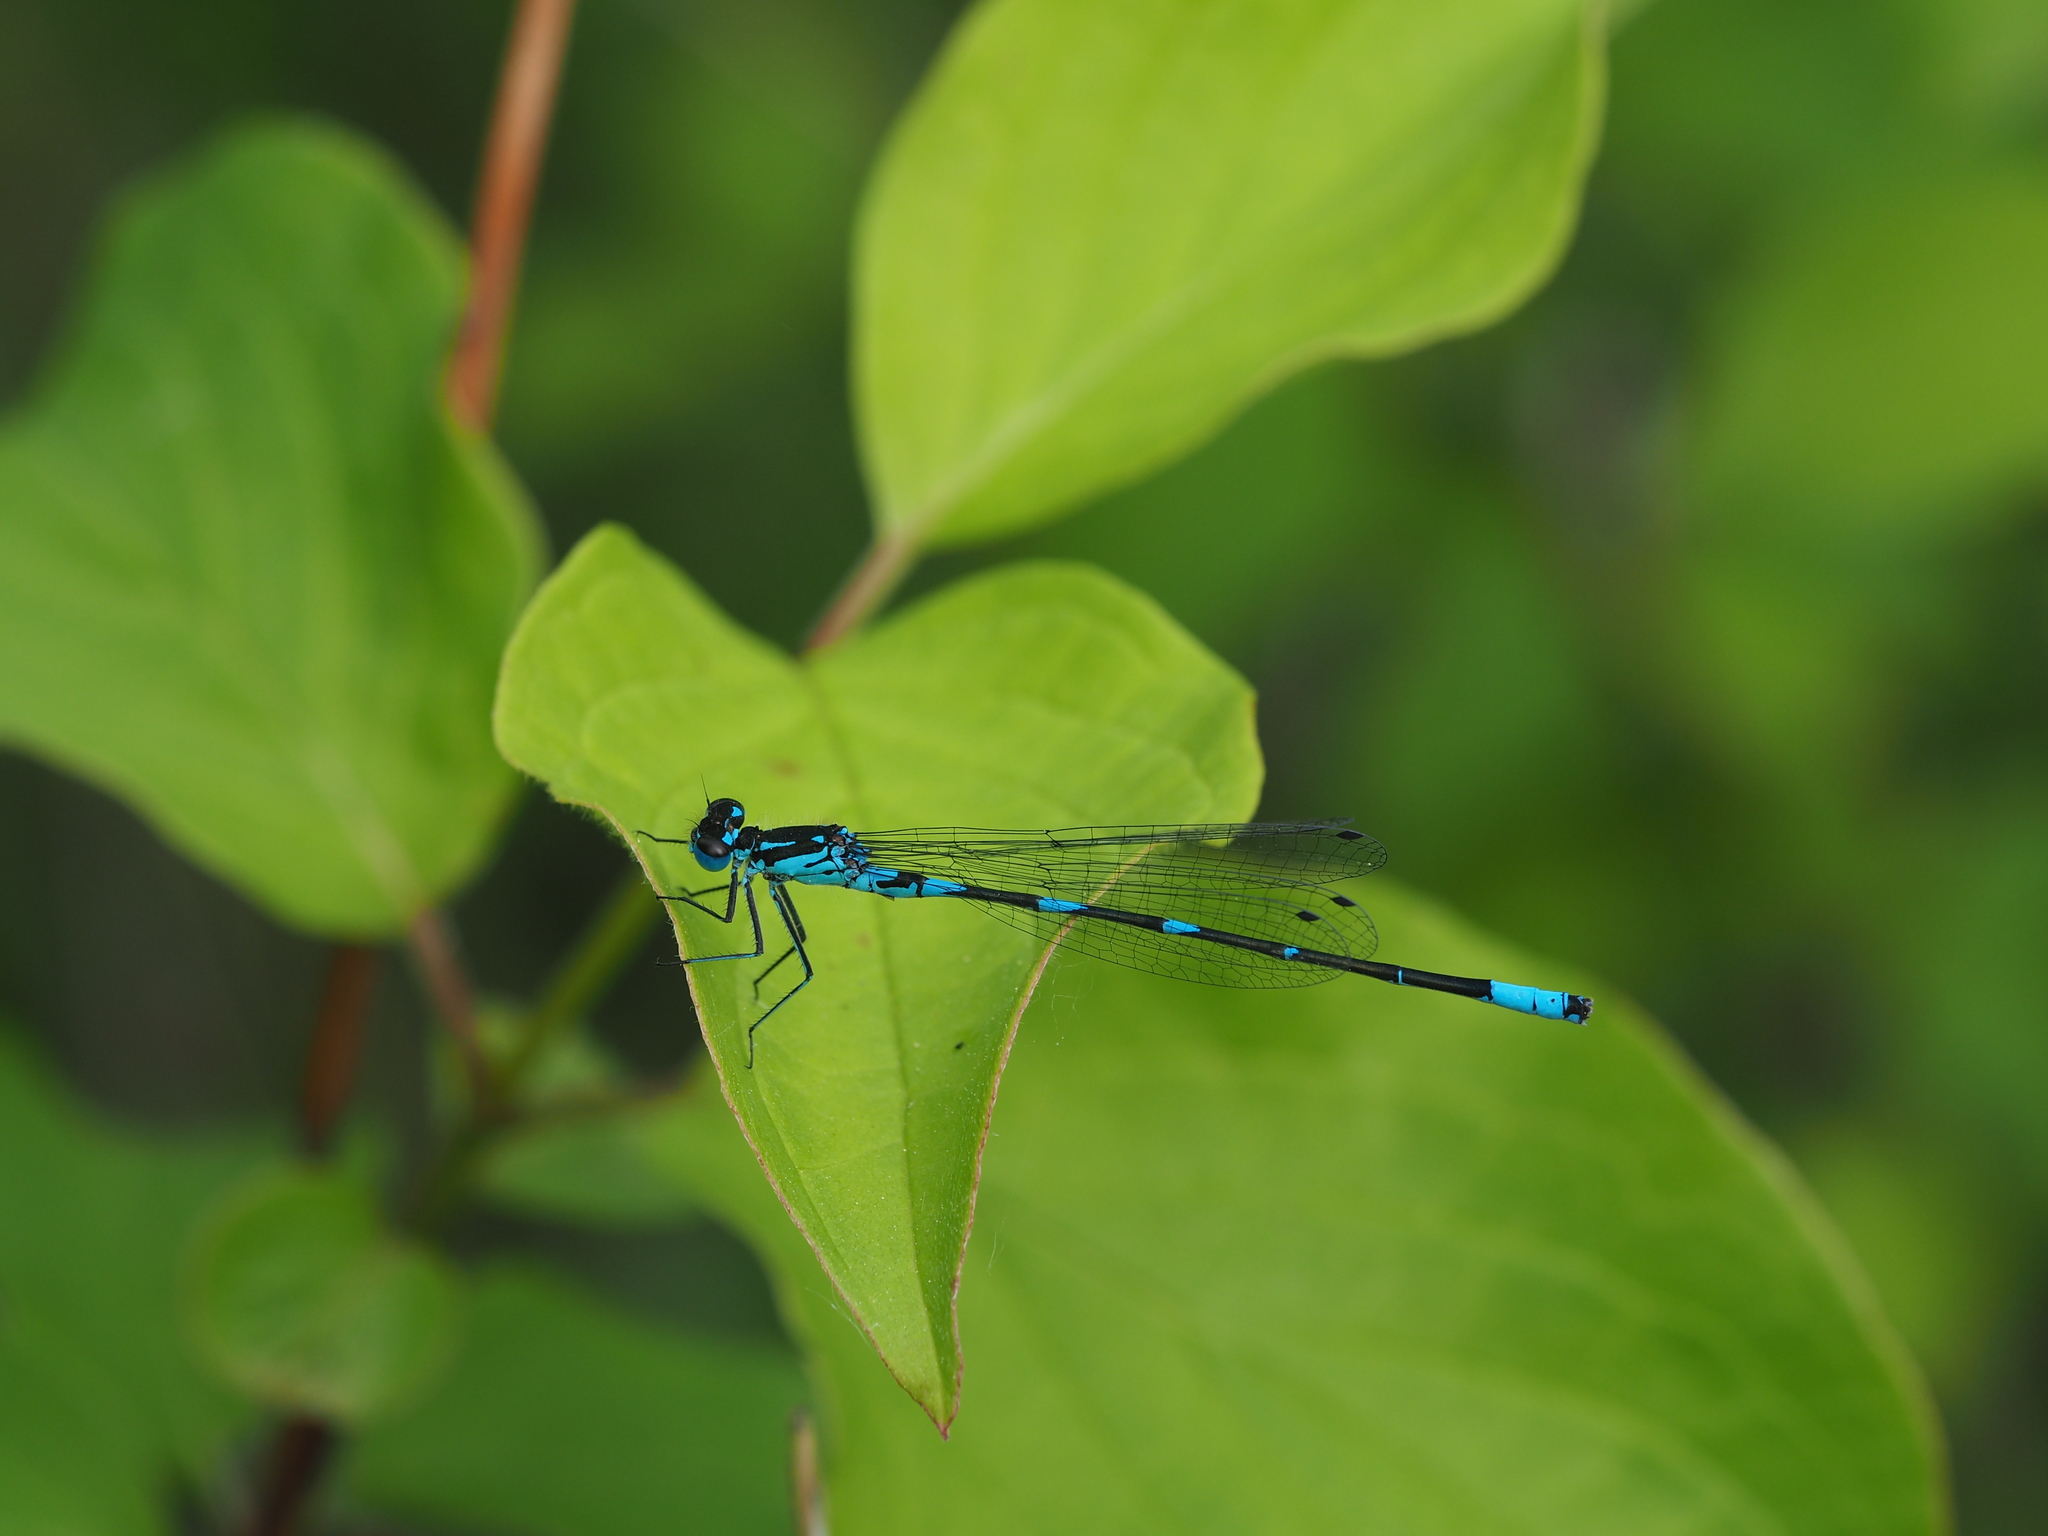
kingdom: Animalia
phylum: Arthropoda
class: Insecta
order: Odonata
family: Coenagrionidae
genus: Coenagrion
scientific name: Coenagrion pulchellum
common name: Variable bluet
